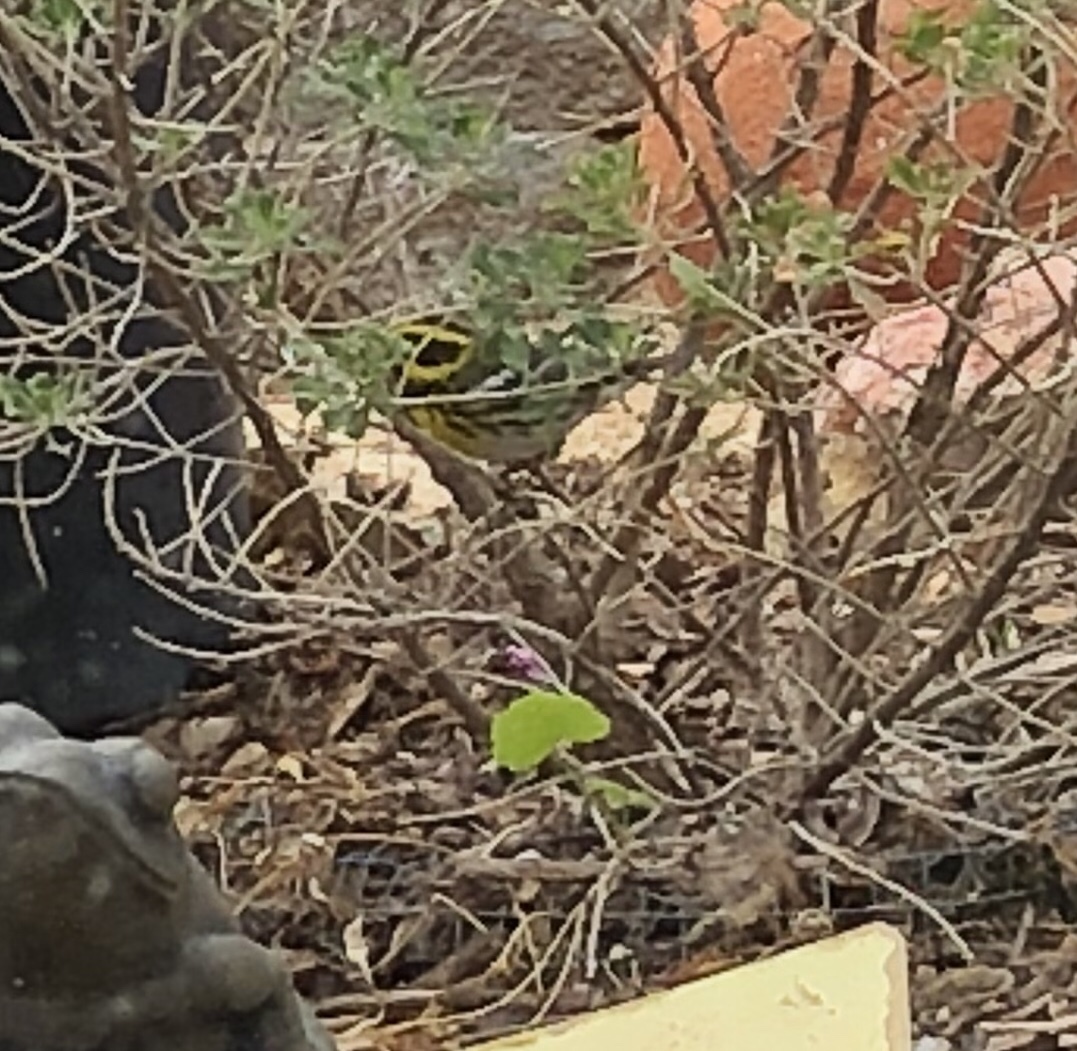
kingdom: Animalia
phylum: Chordata
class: Aves
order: Passeriformes
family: Parulidae
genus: Setophaga
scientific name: Setophaga townsendi
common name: Townsend's warbler
